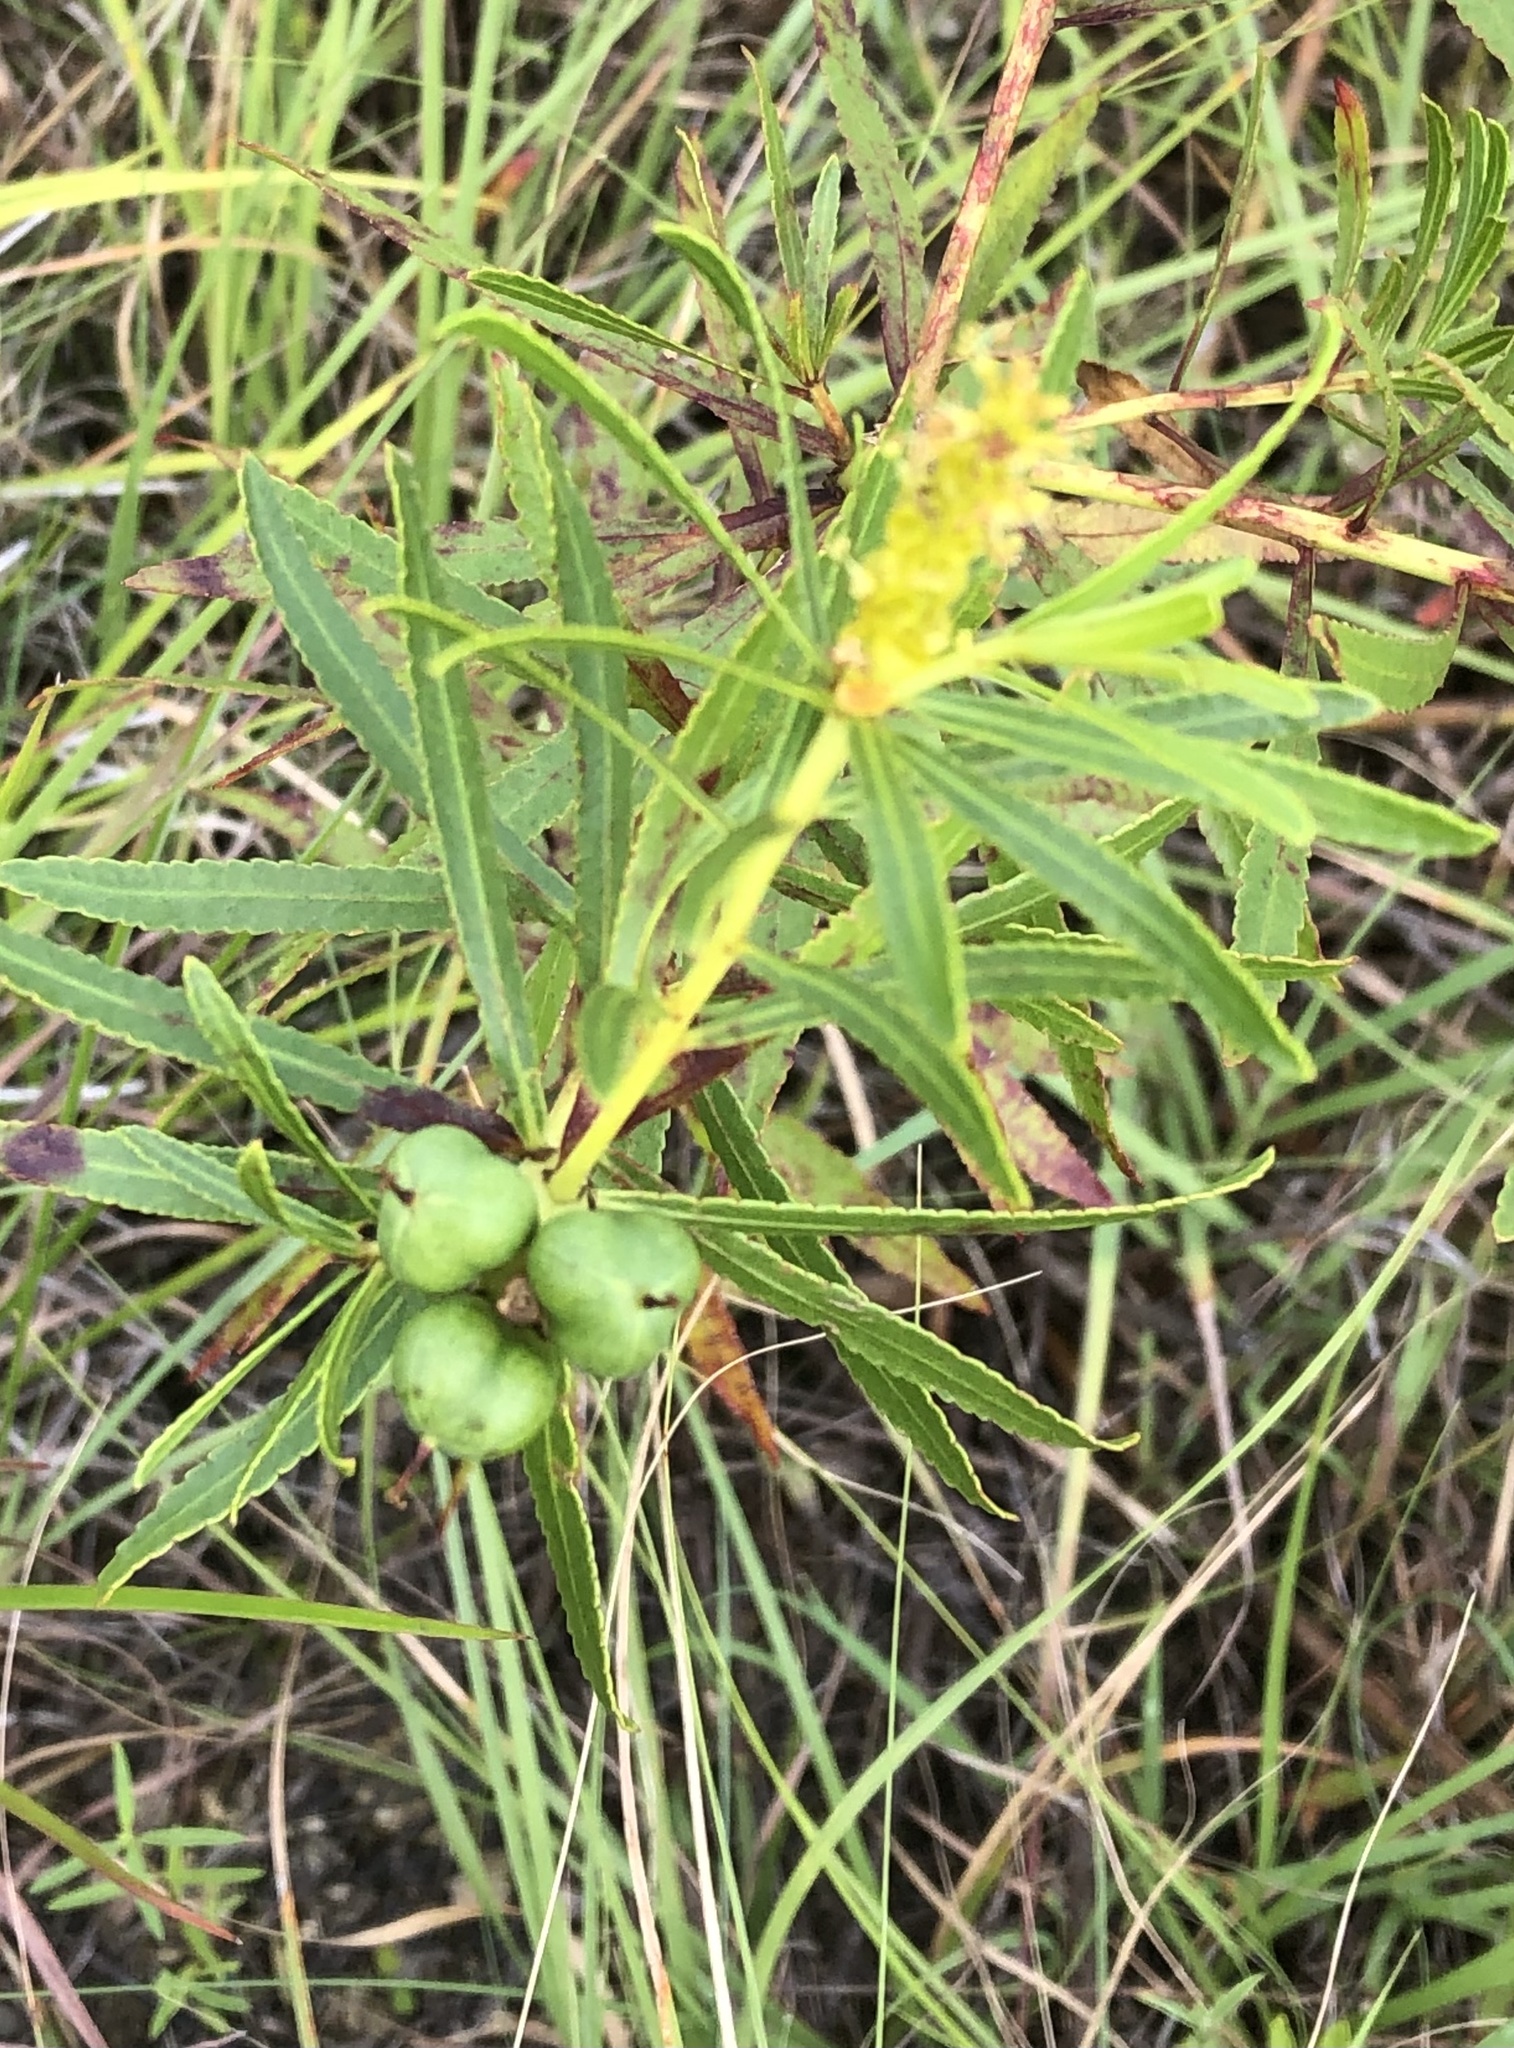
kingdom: Plantae
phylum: Tracheophyta
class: Magnoliopsida
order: Malpighiales
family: Euphorbiaceae
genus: Stillingia
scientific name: Stillingia texana
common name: Texas stillingia
